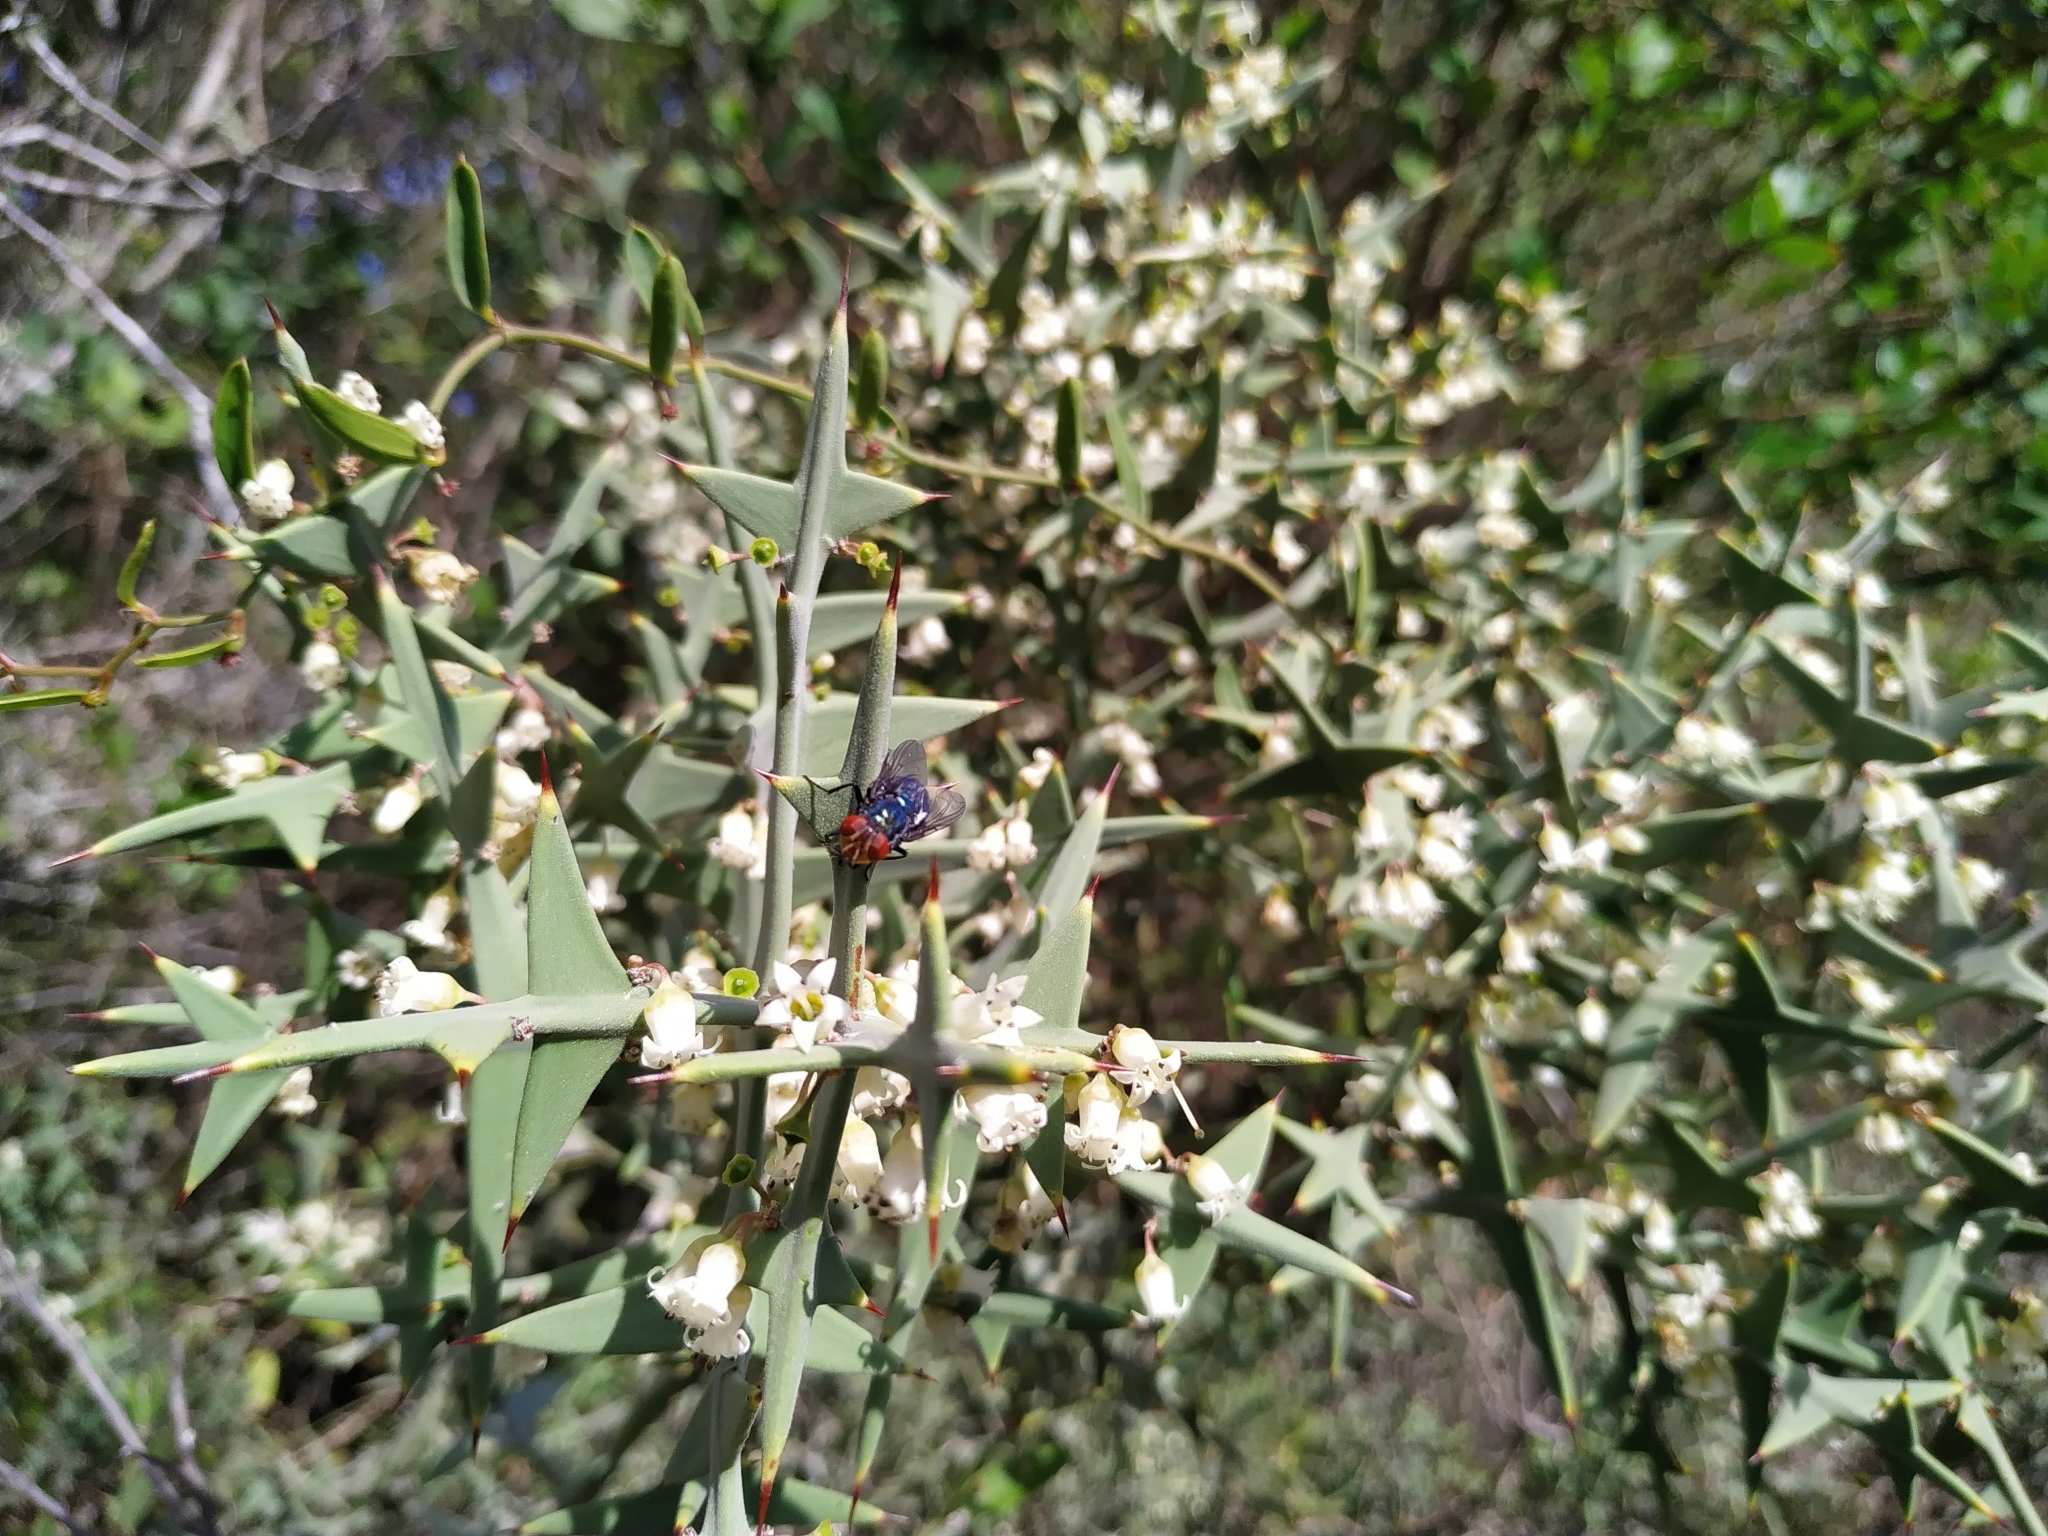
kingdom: Plantae
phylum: Tracheophyta
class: Magnoliopsida
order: Rosales
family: Rhamnaceae
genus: Colletia
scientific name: Colletia paradoxa
